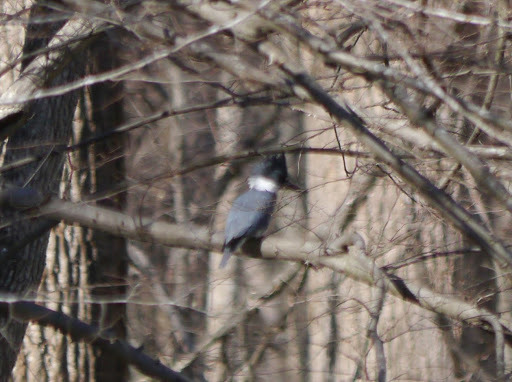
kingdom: Animalia
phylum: Chordata
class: Aves
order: Coraciiformes
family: Alcedinidae
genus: Megaceryle
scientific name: Megaceryle alcyon
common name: Belted kingfisher
